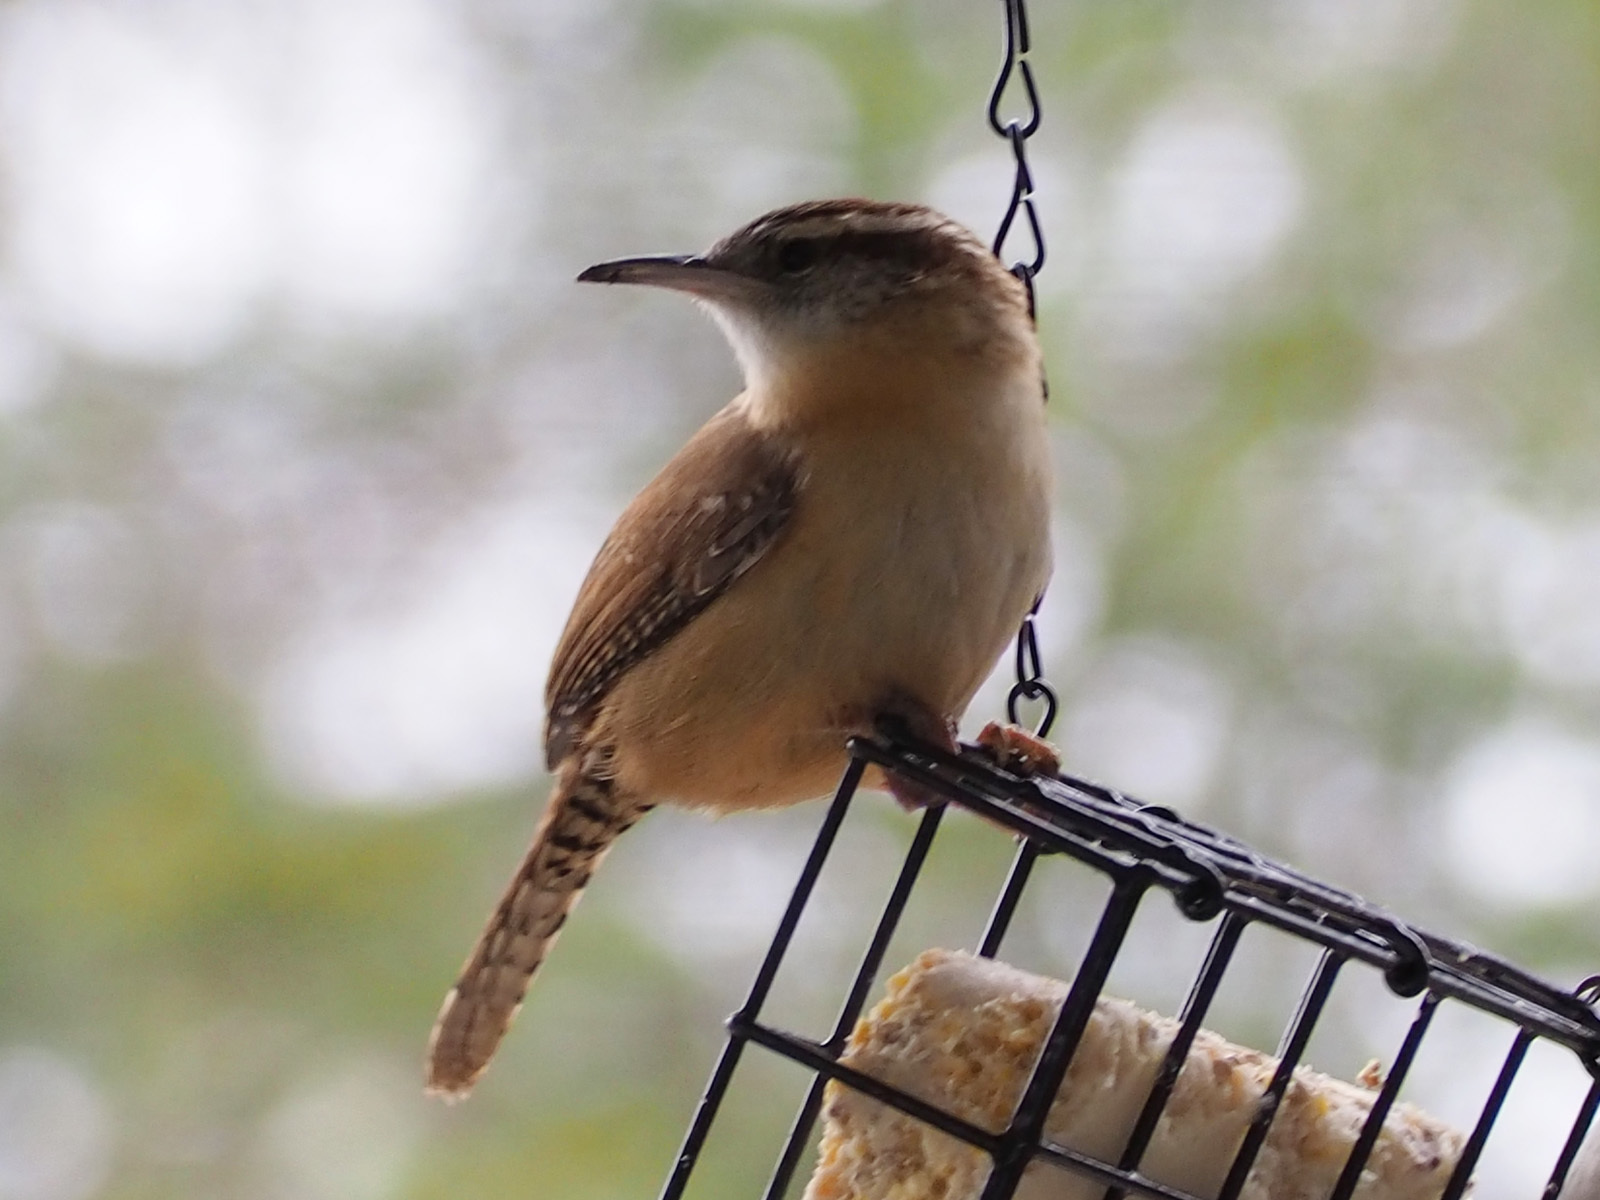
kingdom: Animalia
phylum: Chordata
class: Aves
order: Passeriformes
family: Troglodytidae
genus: Thryothorus
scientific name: Thryothorus ludovicianus
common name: Carolina wren
